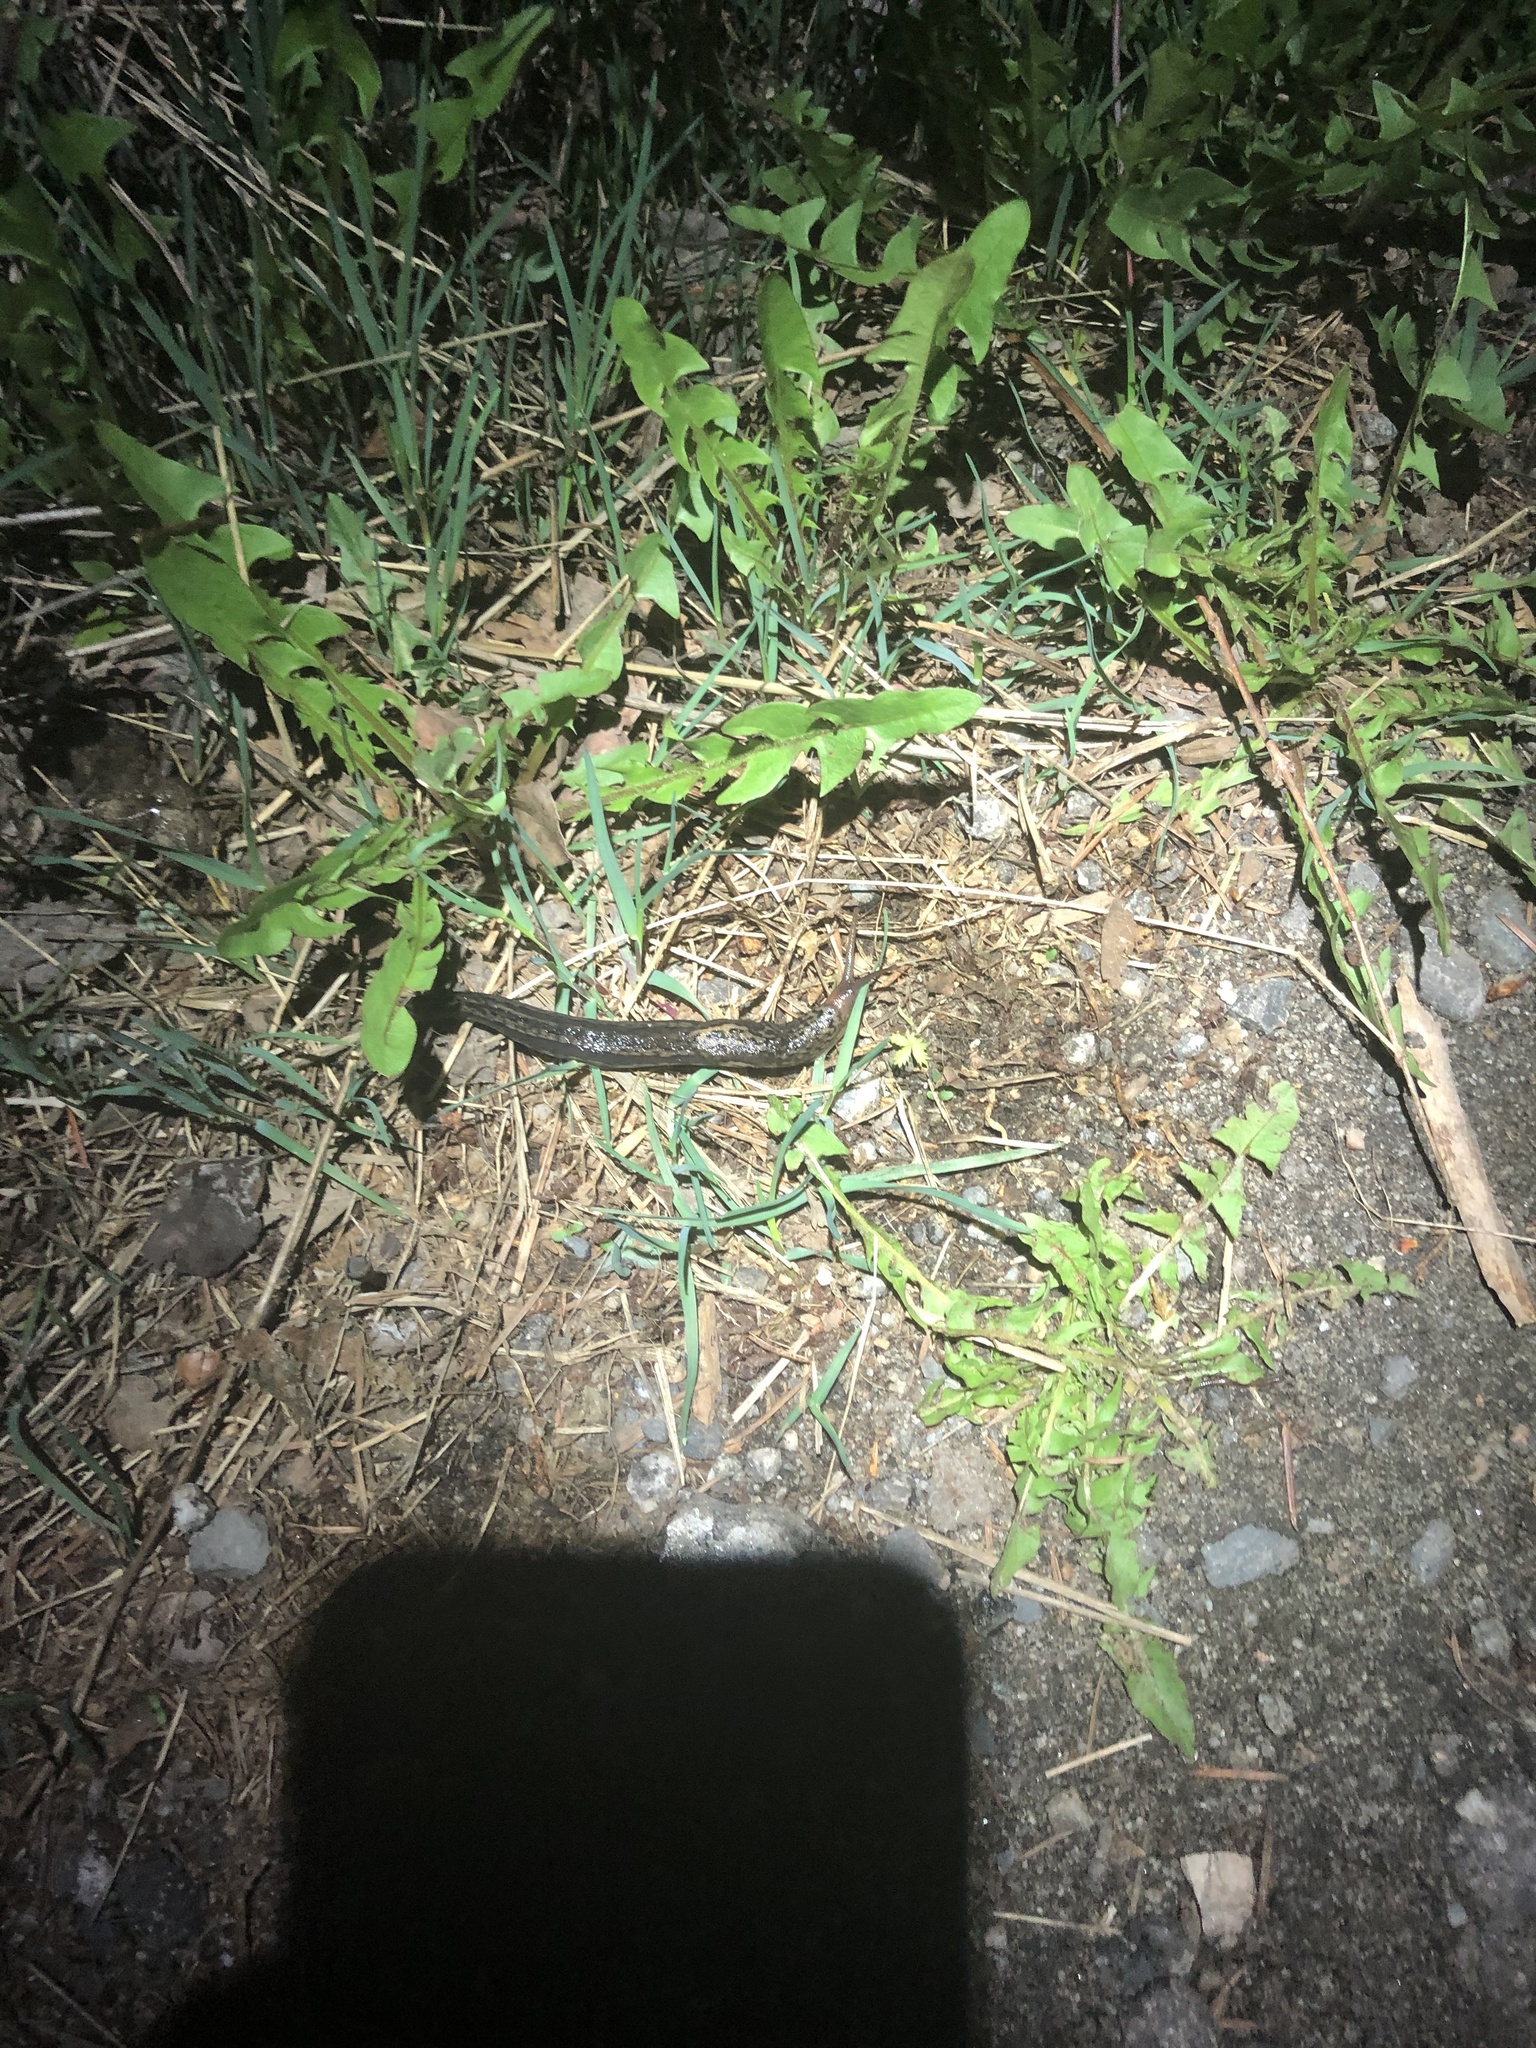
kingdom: Animalia
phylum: Mollusca
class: Gastropoda
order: Stylommatophora
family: Limacidae
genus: Limax
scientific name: Limax maximus
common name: Great grey slug
